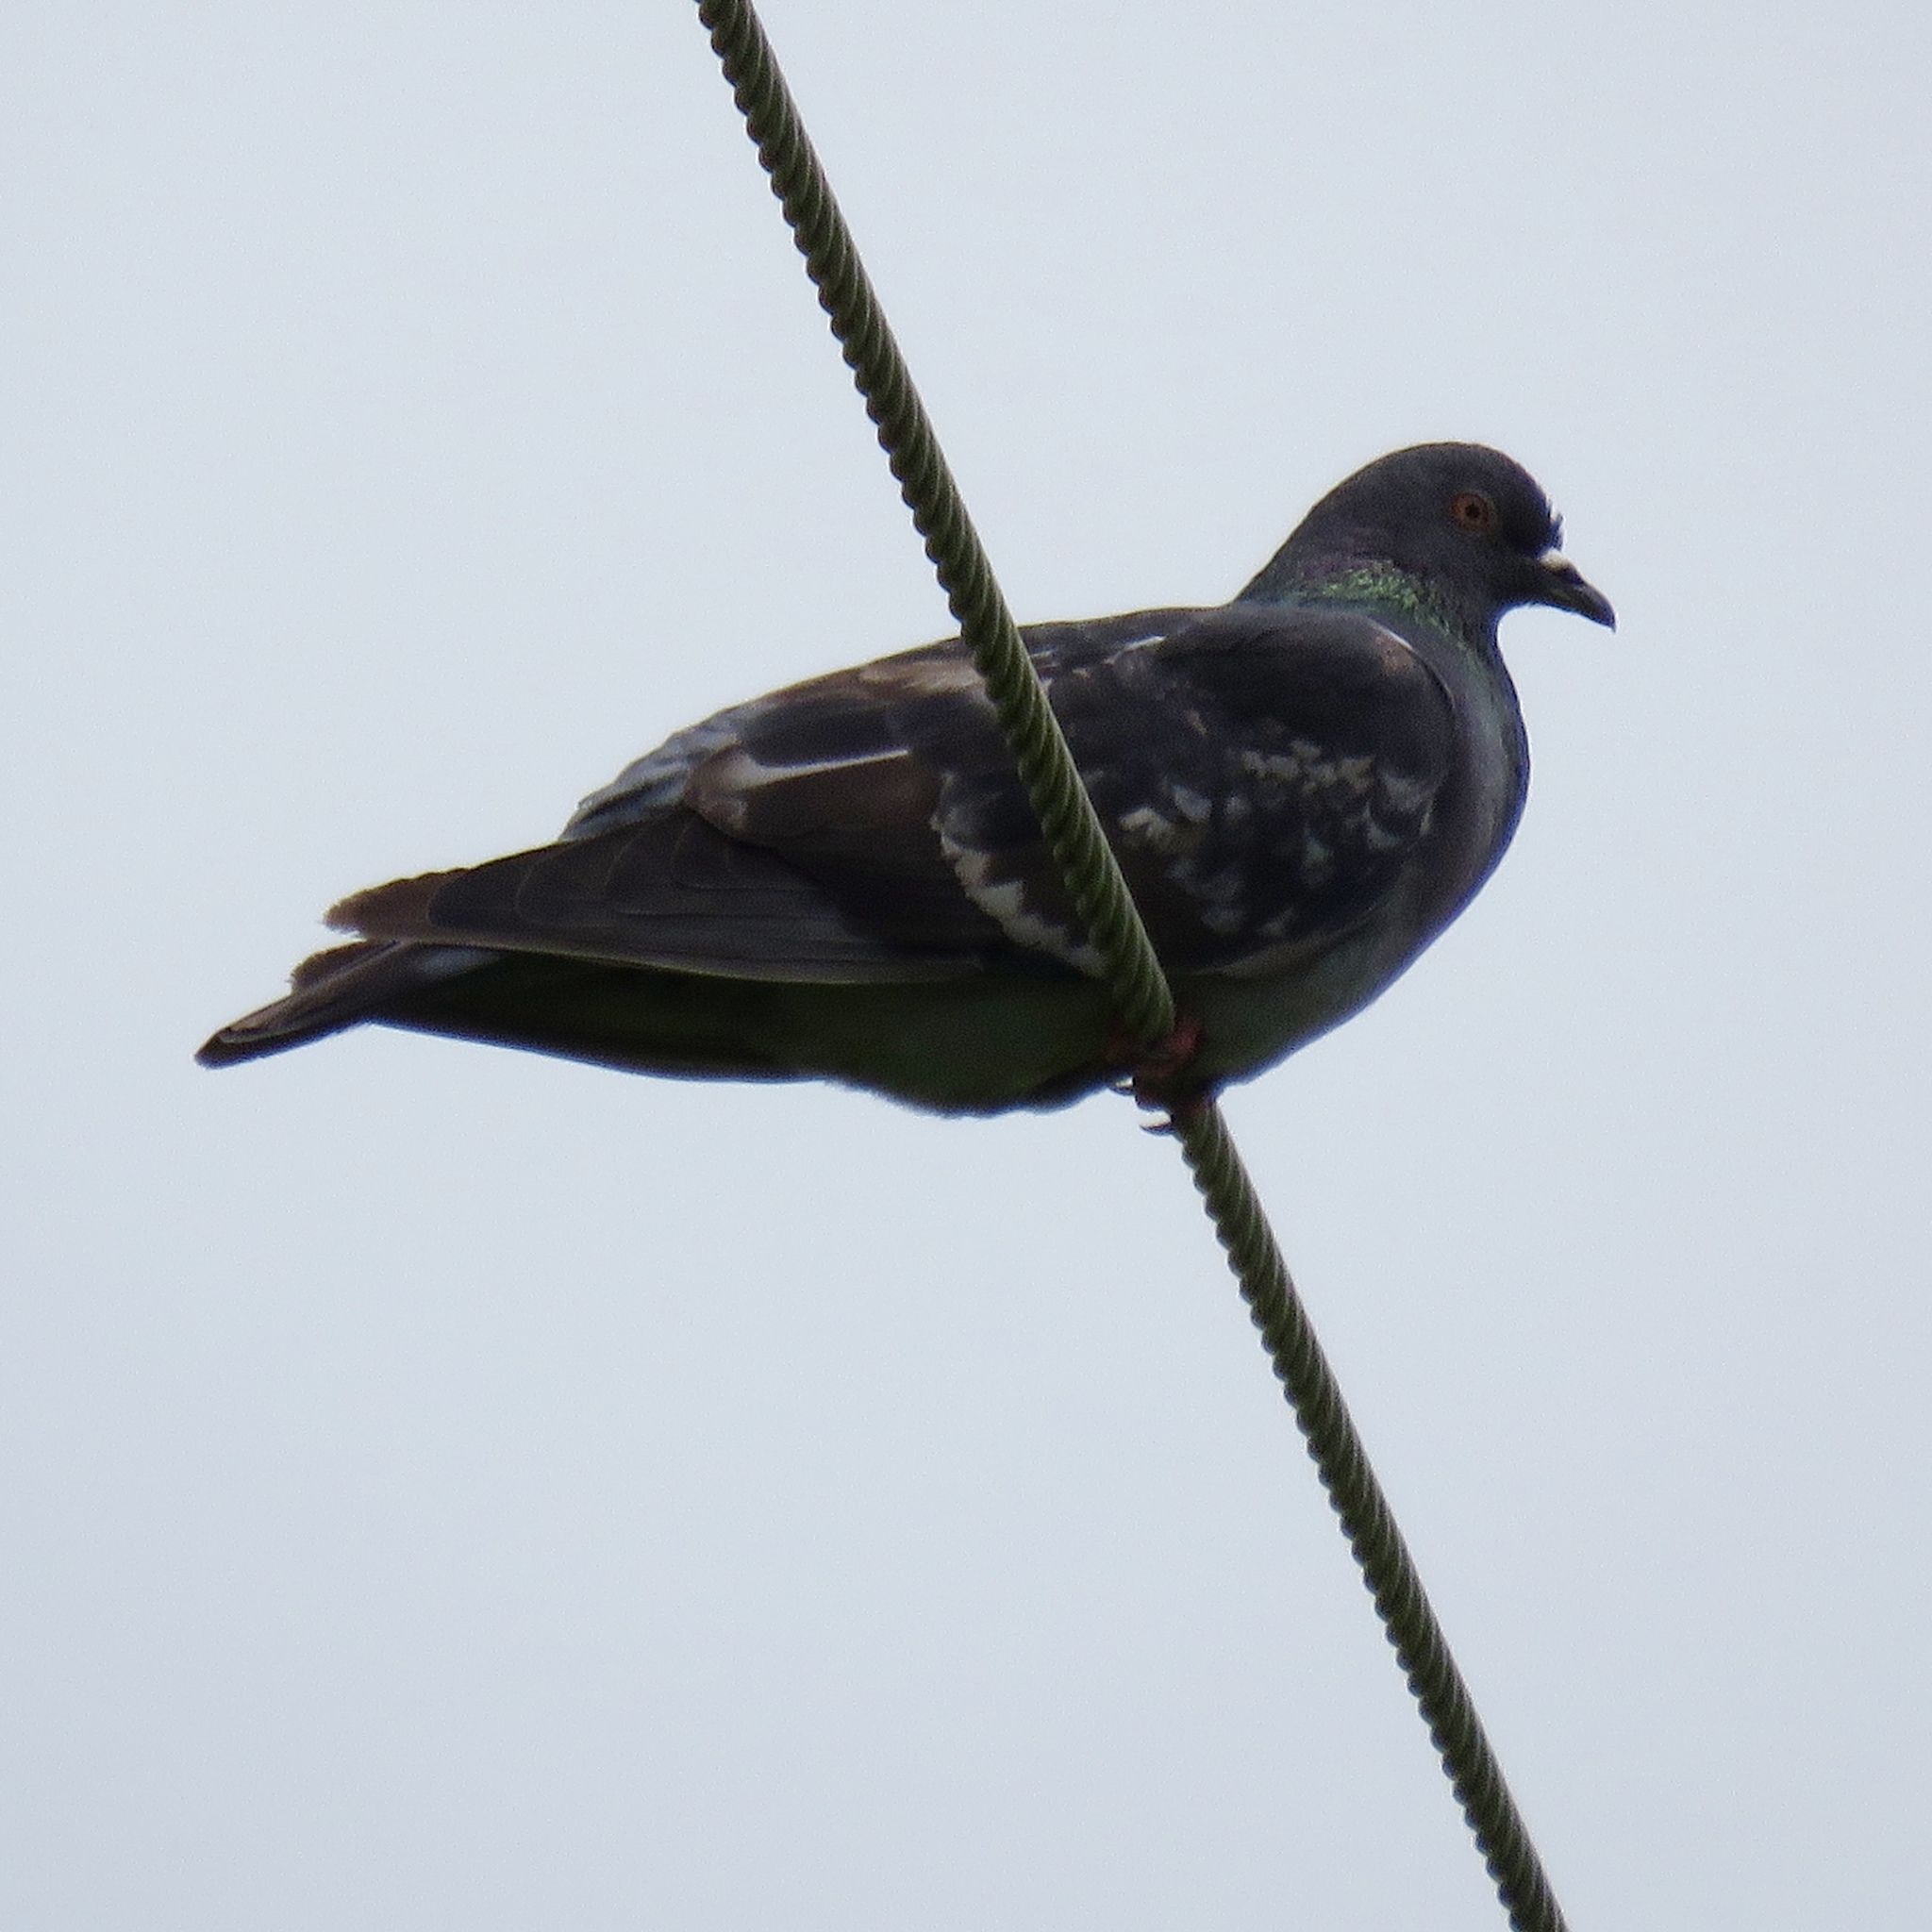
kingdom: Animalia
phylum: Chordata
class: Aves
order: Columbiformes
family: Columbidae
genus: Columba
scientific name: Columba livia
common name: Rock pigeon
